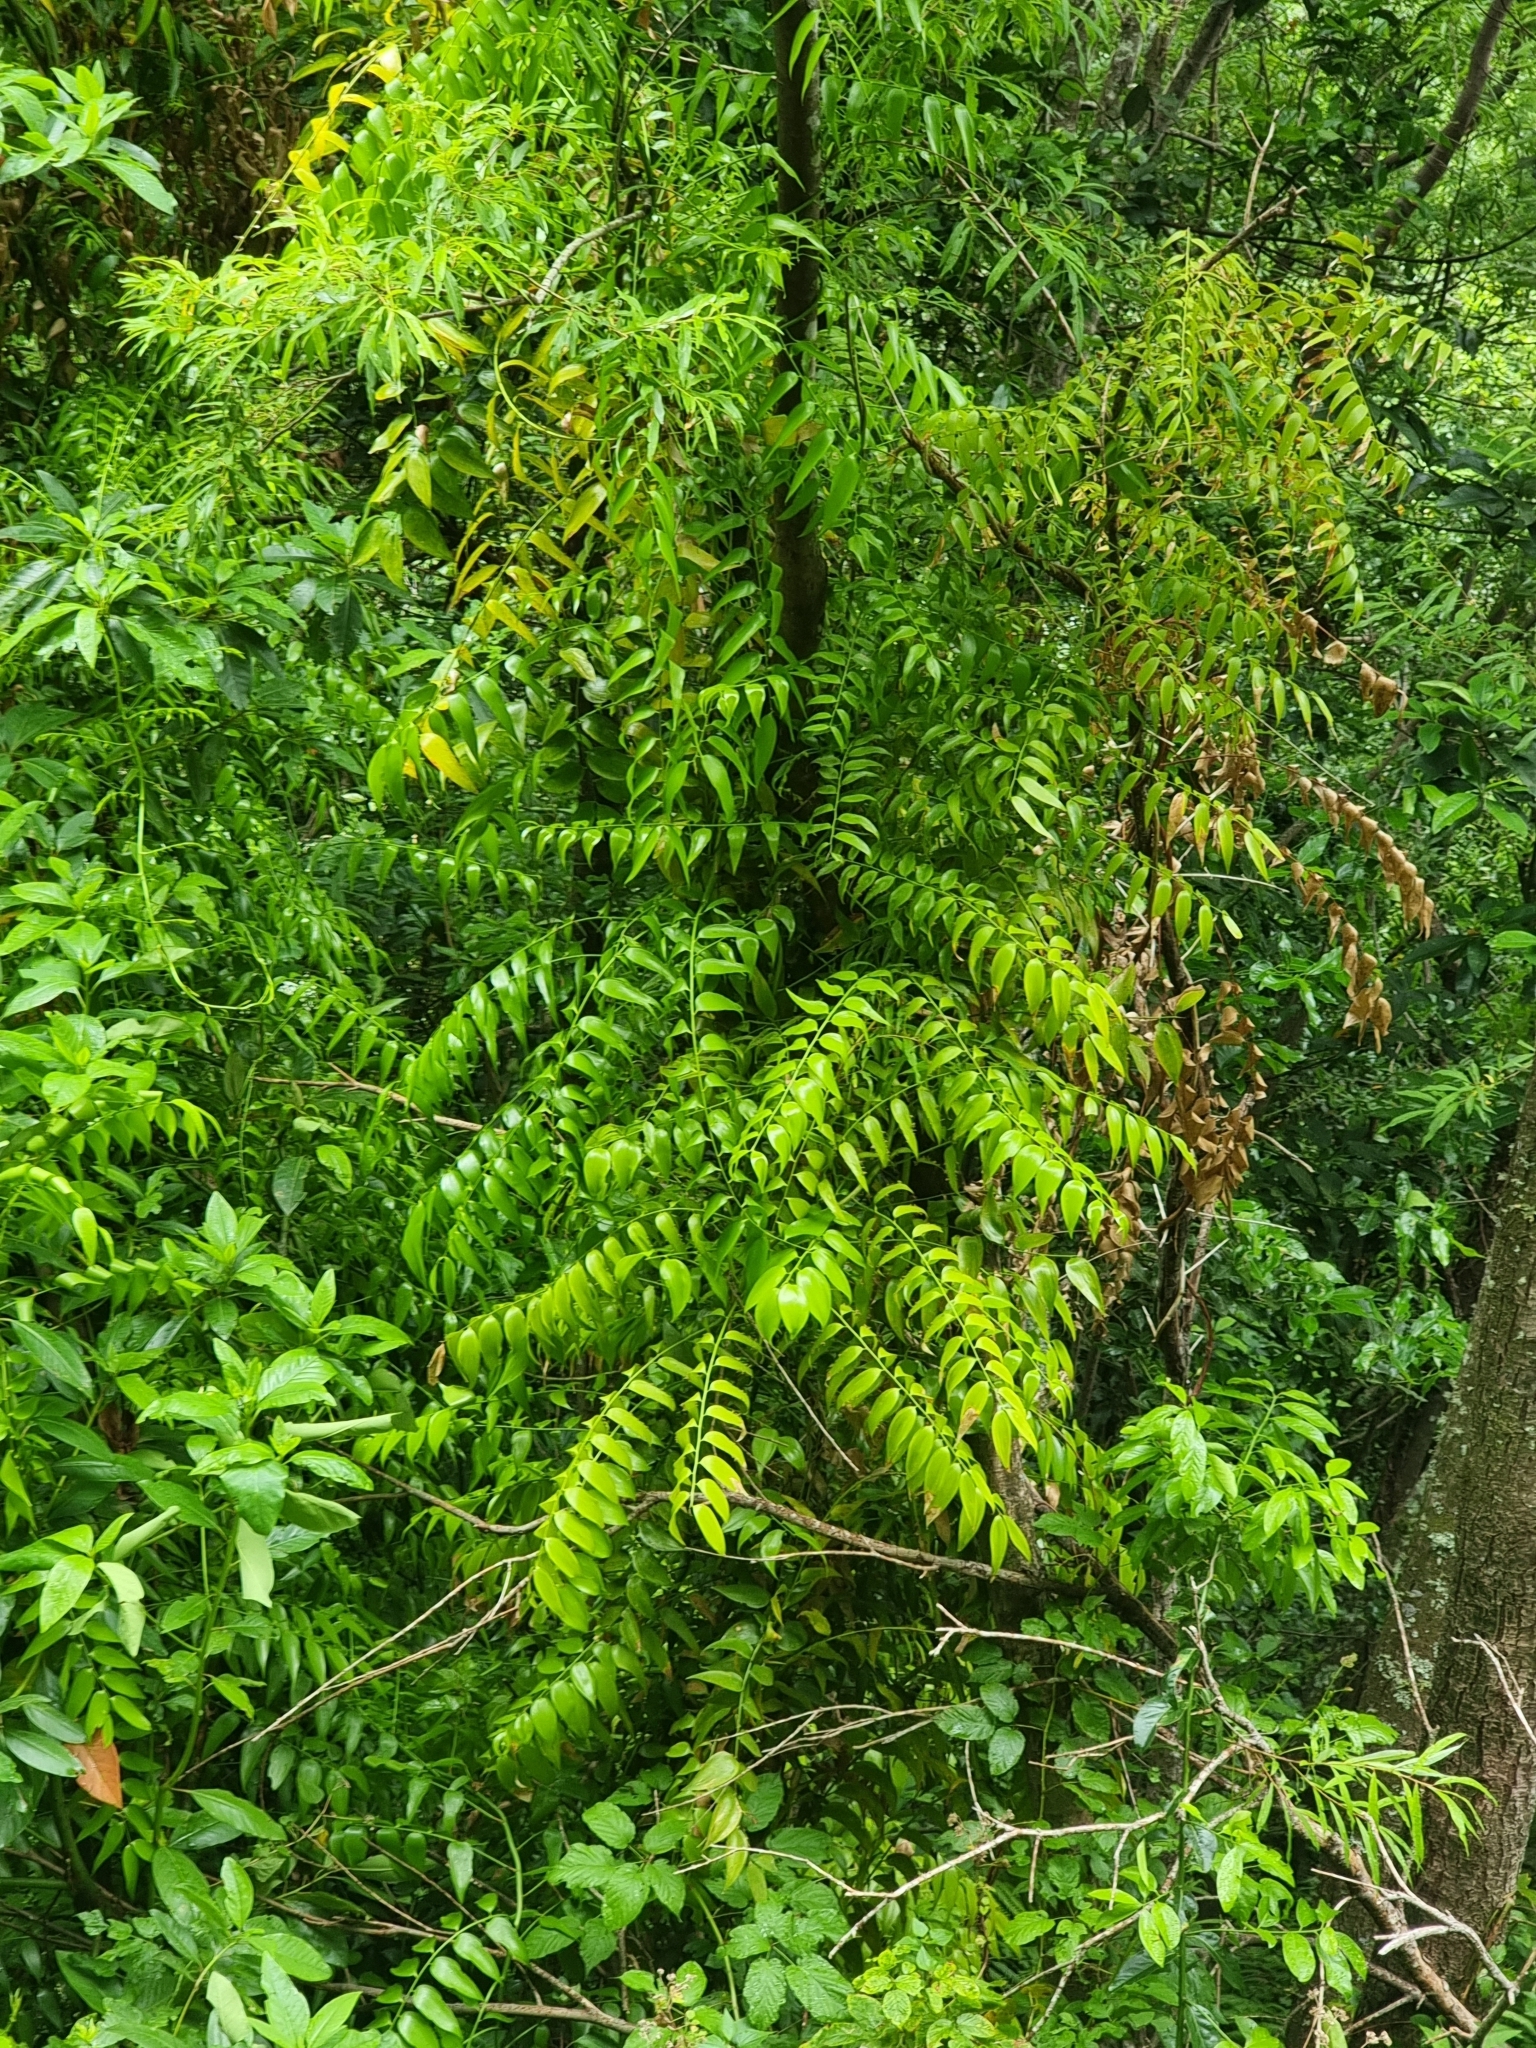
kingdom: Plantae
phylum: Tracheophyta
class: Liliopsida
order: Asparagales
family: Asparagaceae
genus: Semele
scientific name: Semele androgyna
